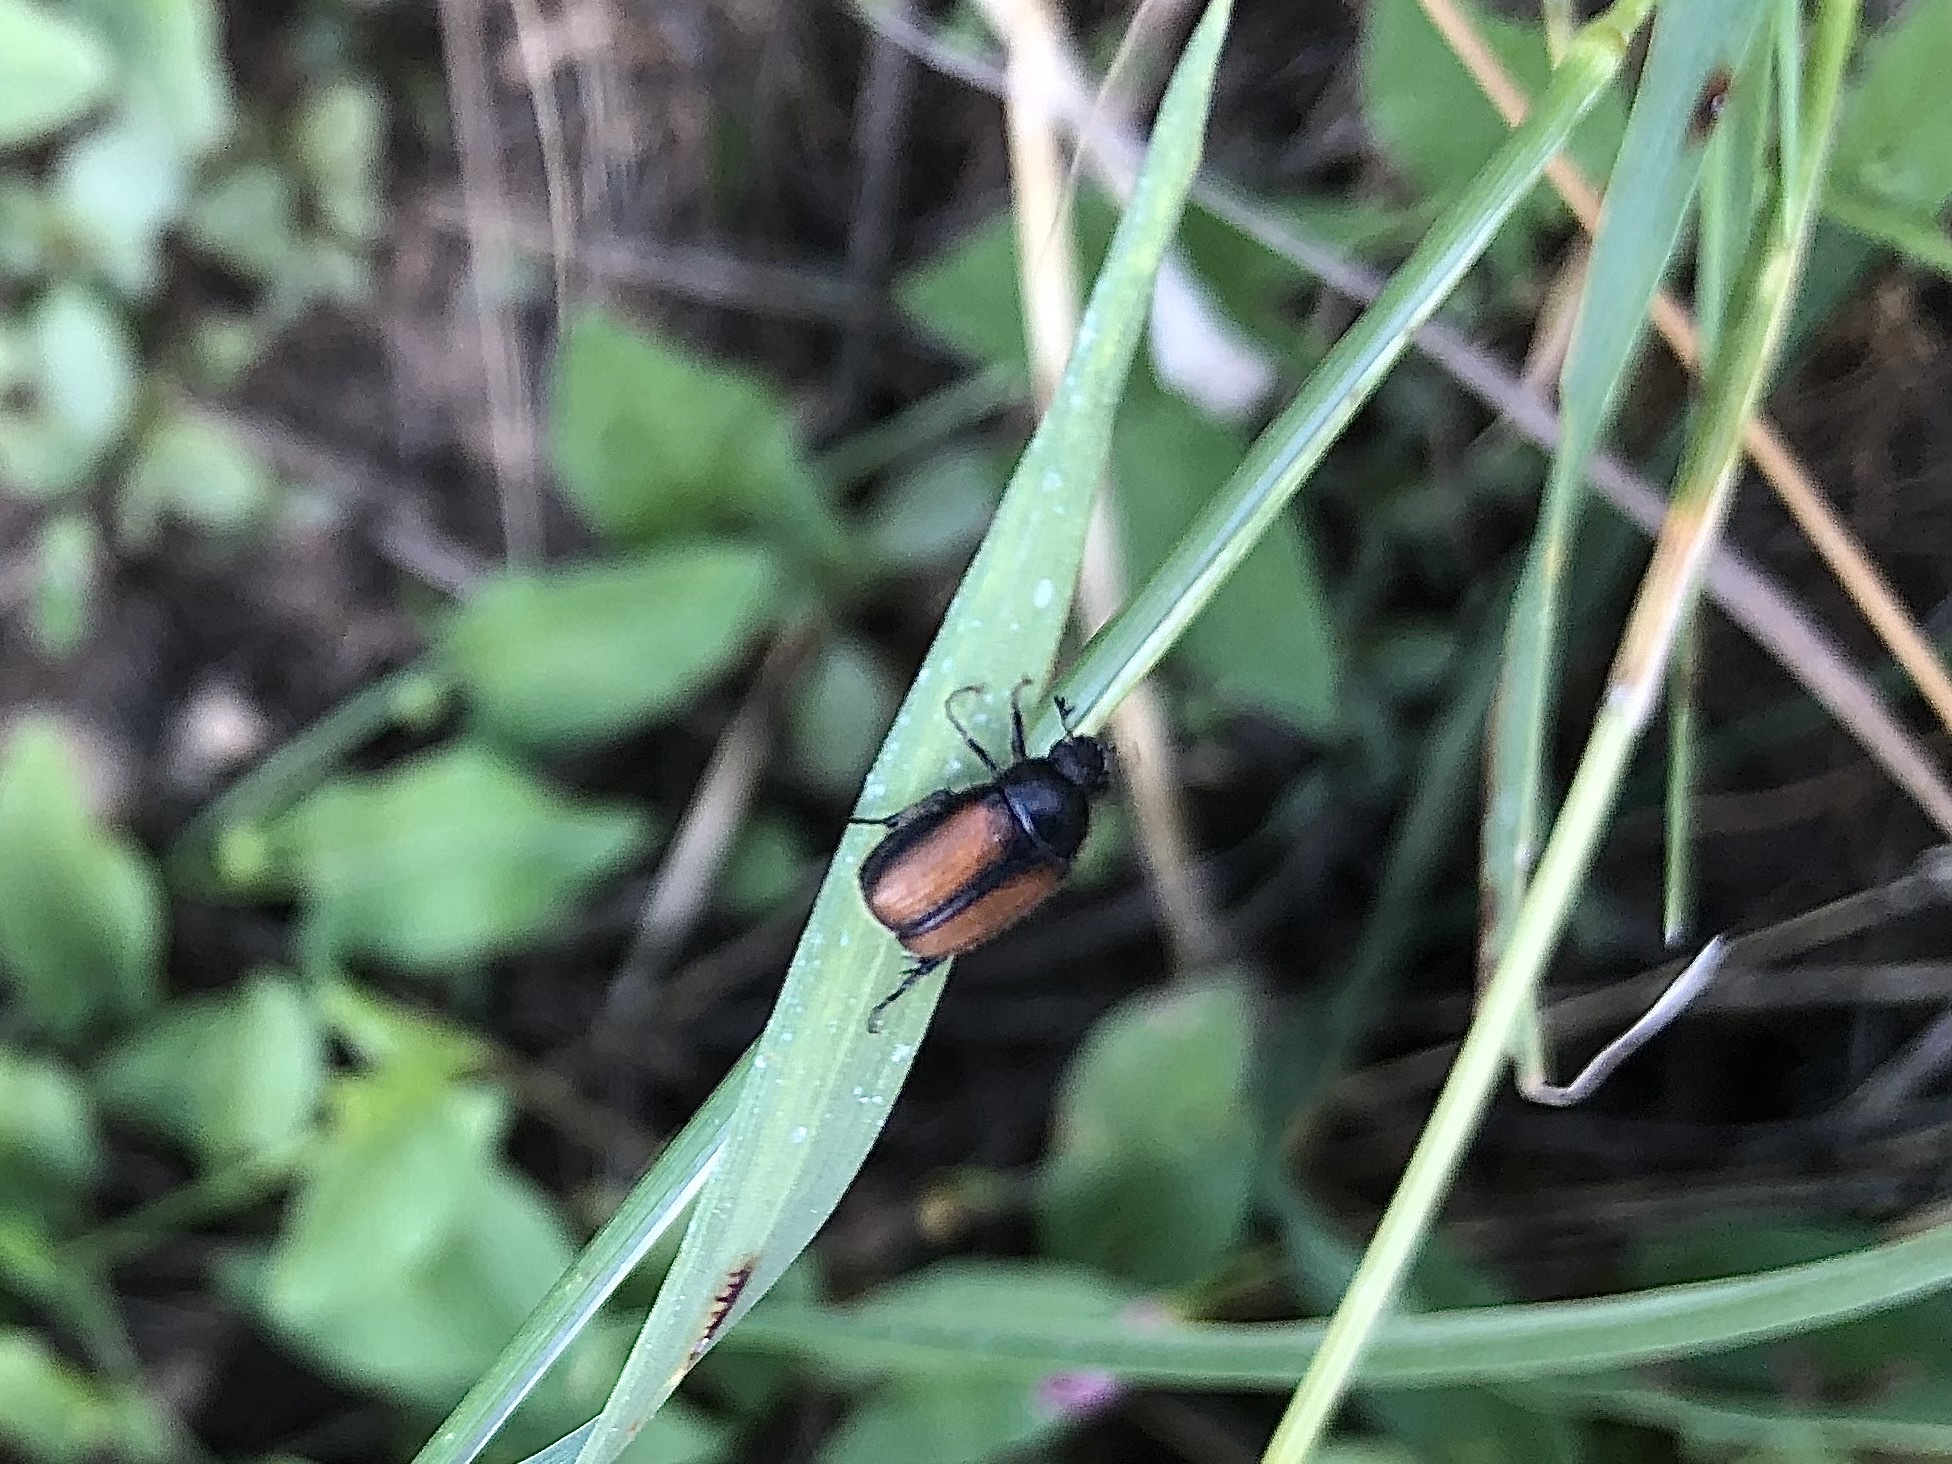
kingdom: Animalia
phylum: Arthropoda
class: Insecta
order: Coleoptera
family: Scarabaeidae
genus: Omaloplia
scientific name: Omaloplia nigromarginata
